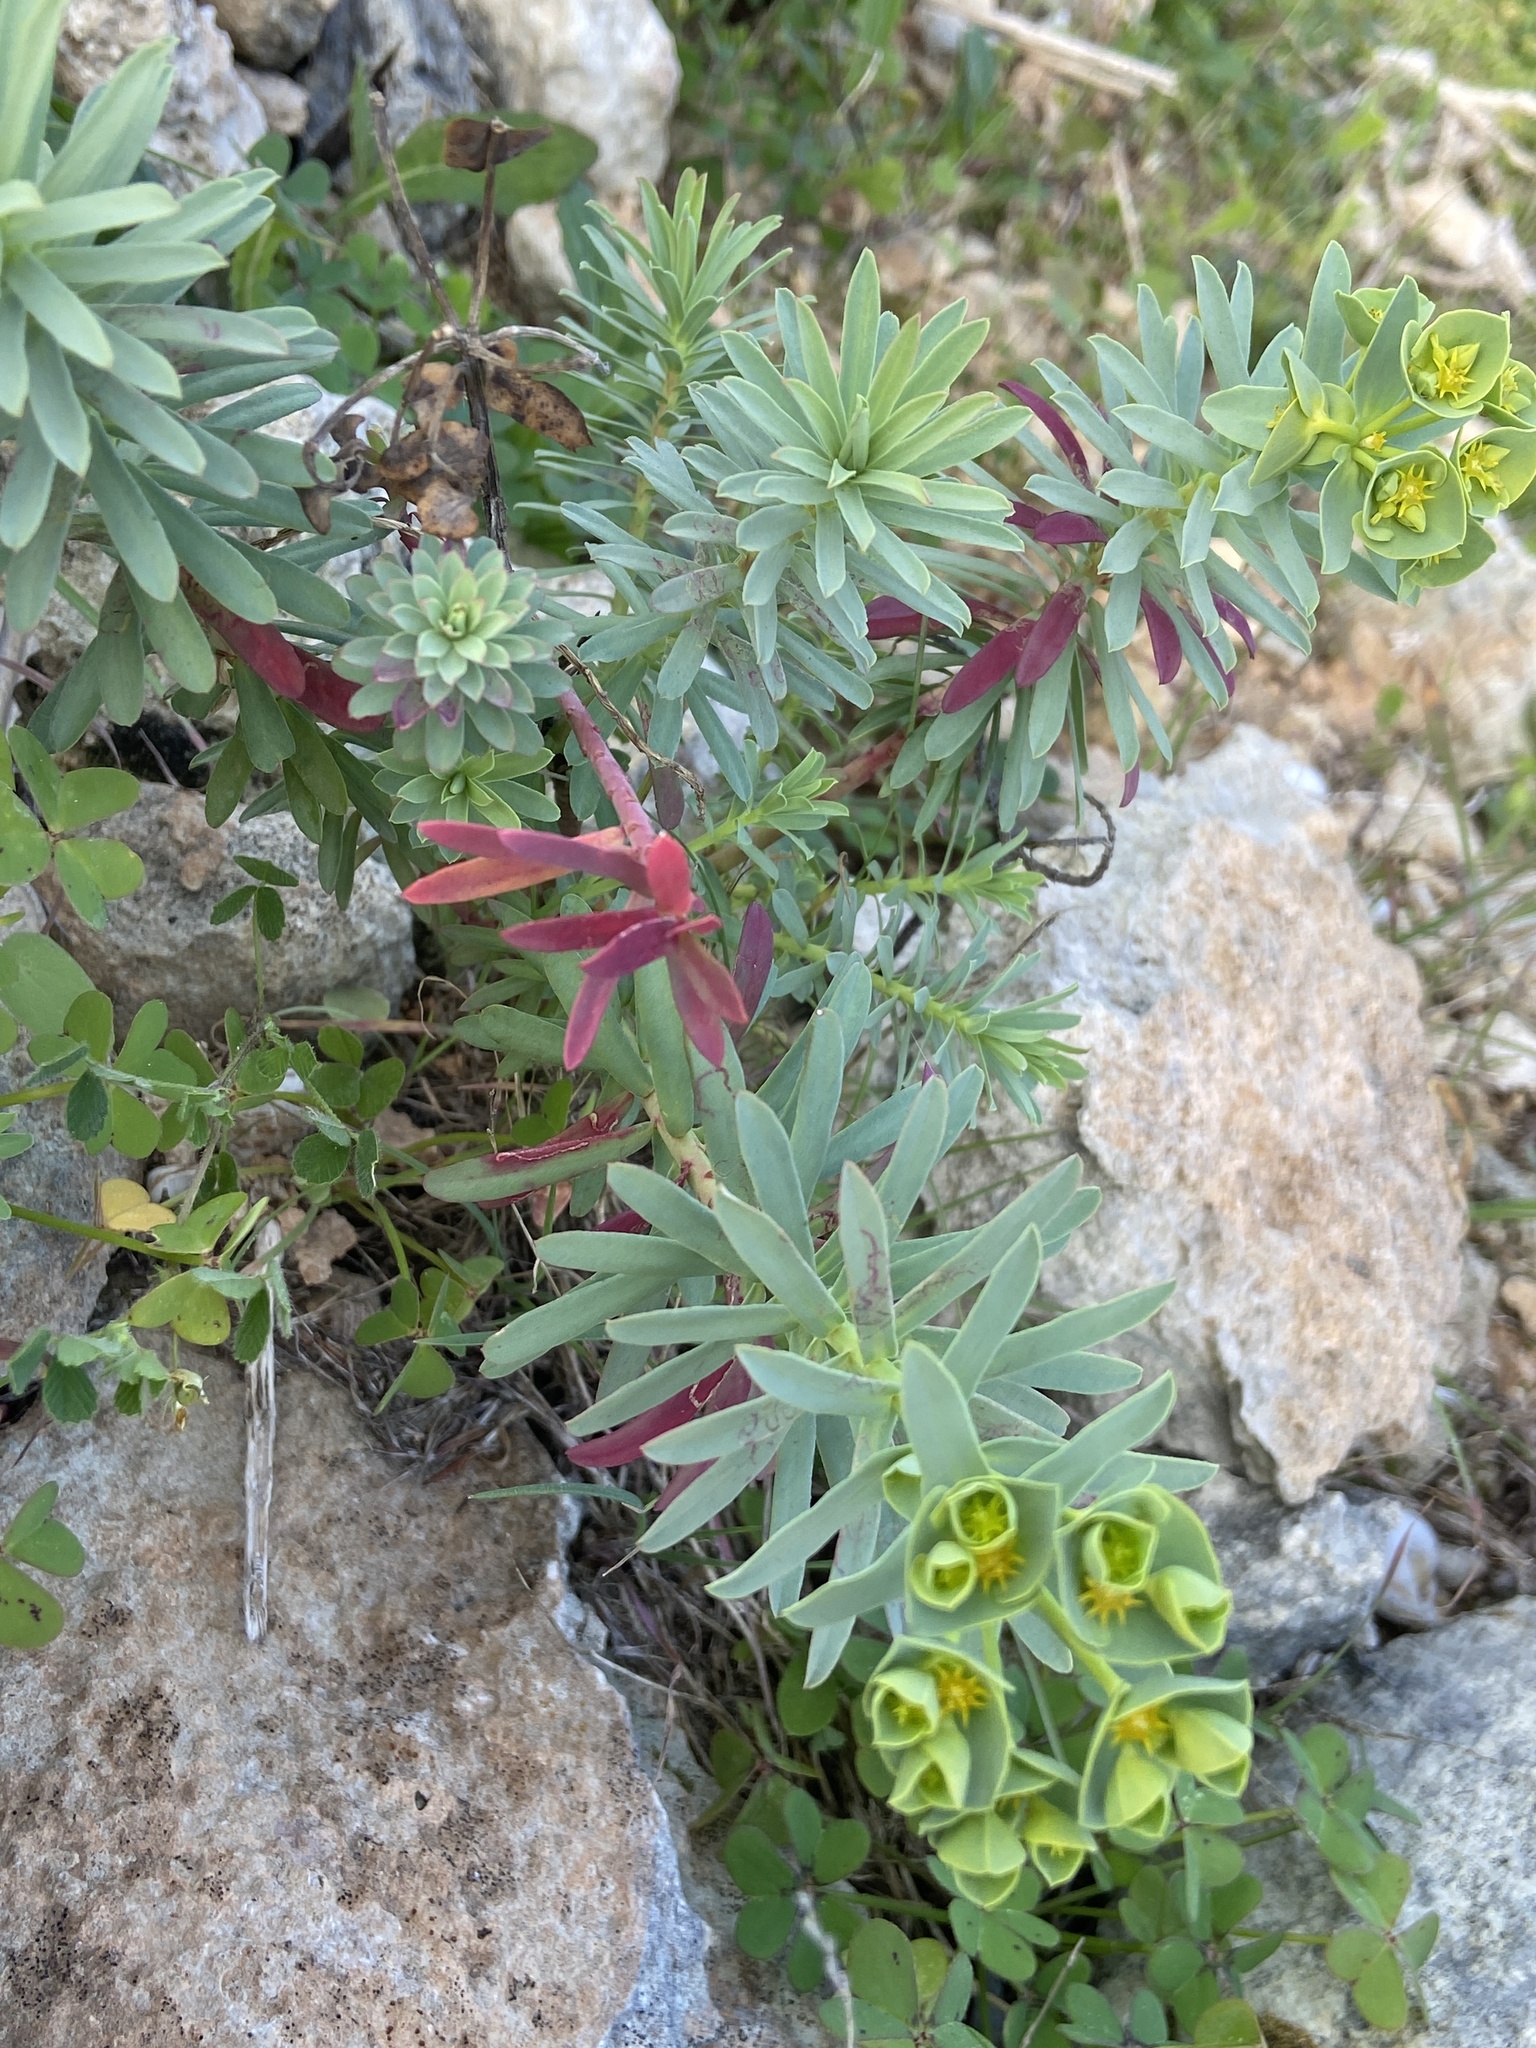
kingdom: Plantae
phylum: Tracheophyta
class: Magnoliopsida
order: Malpighiales
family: Euphorbiaceae
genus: Euphorbia
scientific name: Euphorbia segetalis
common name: Corn spurge
